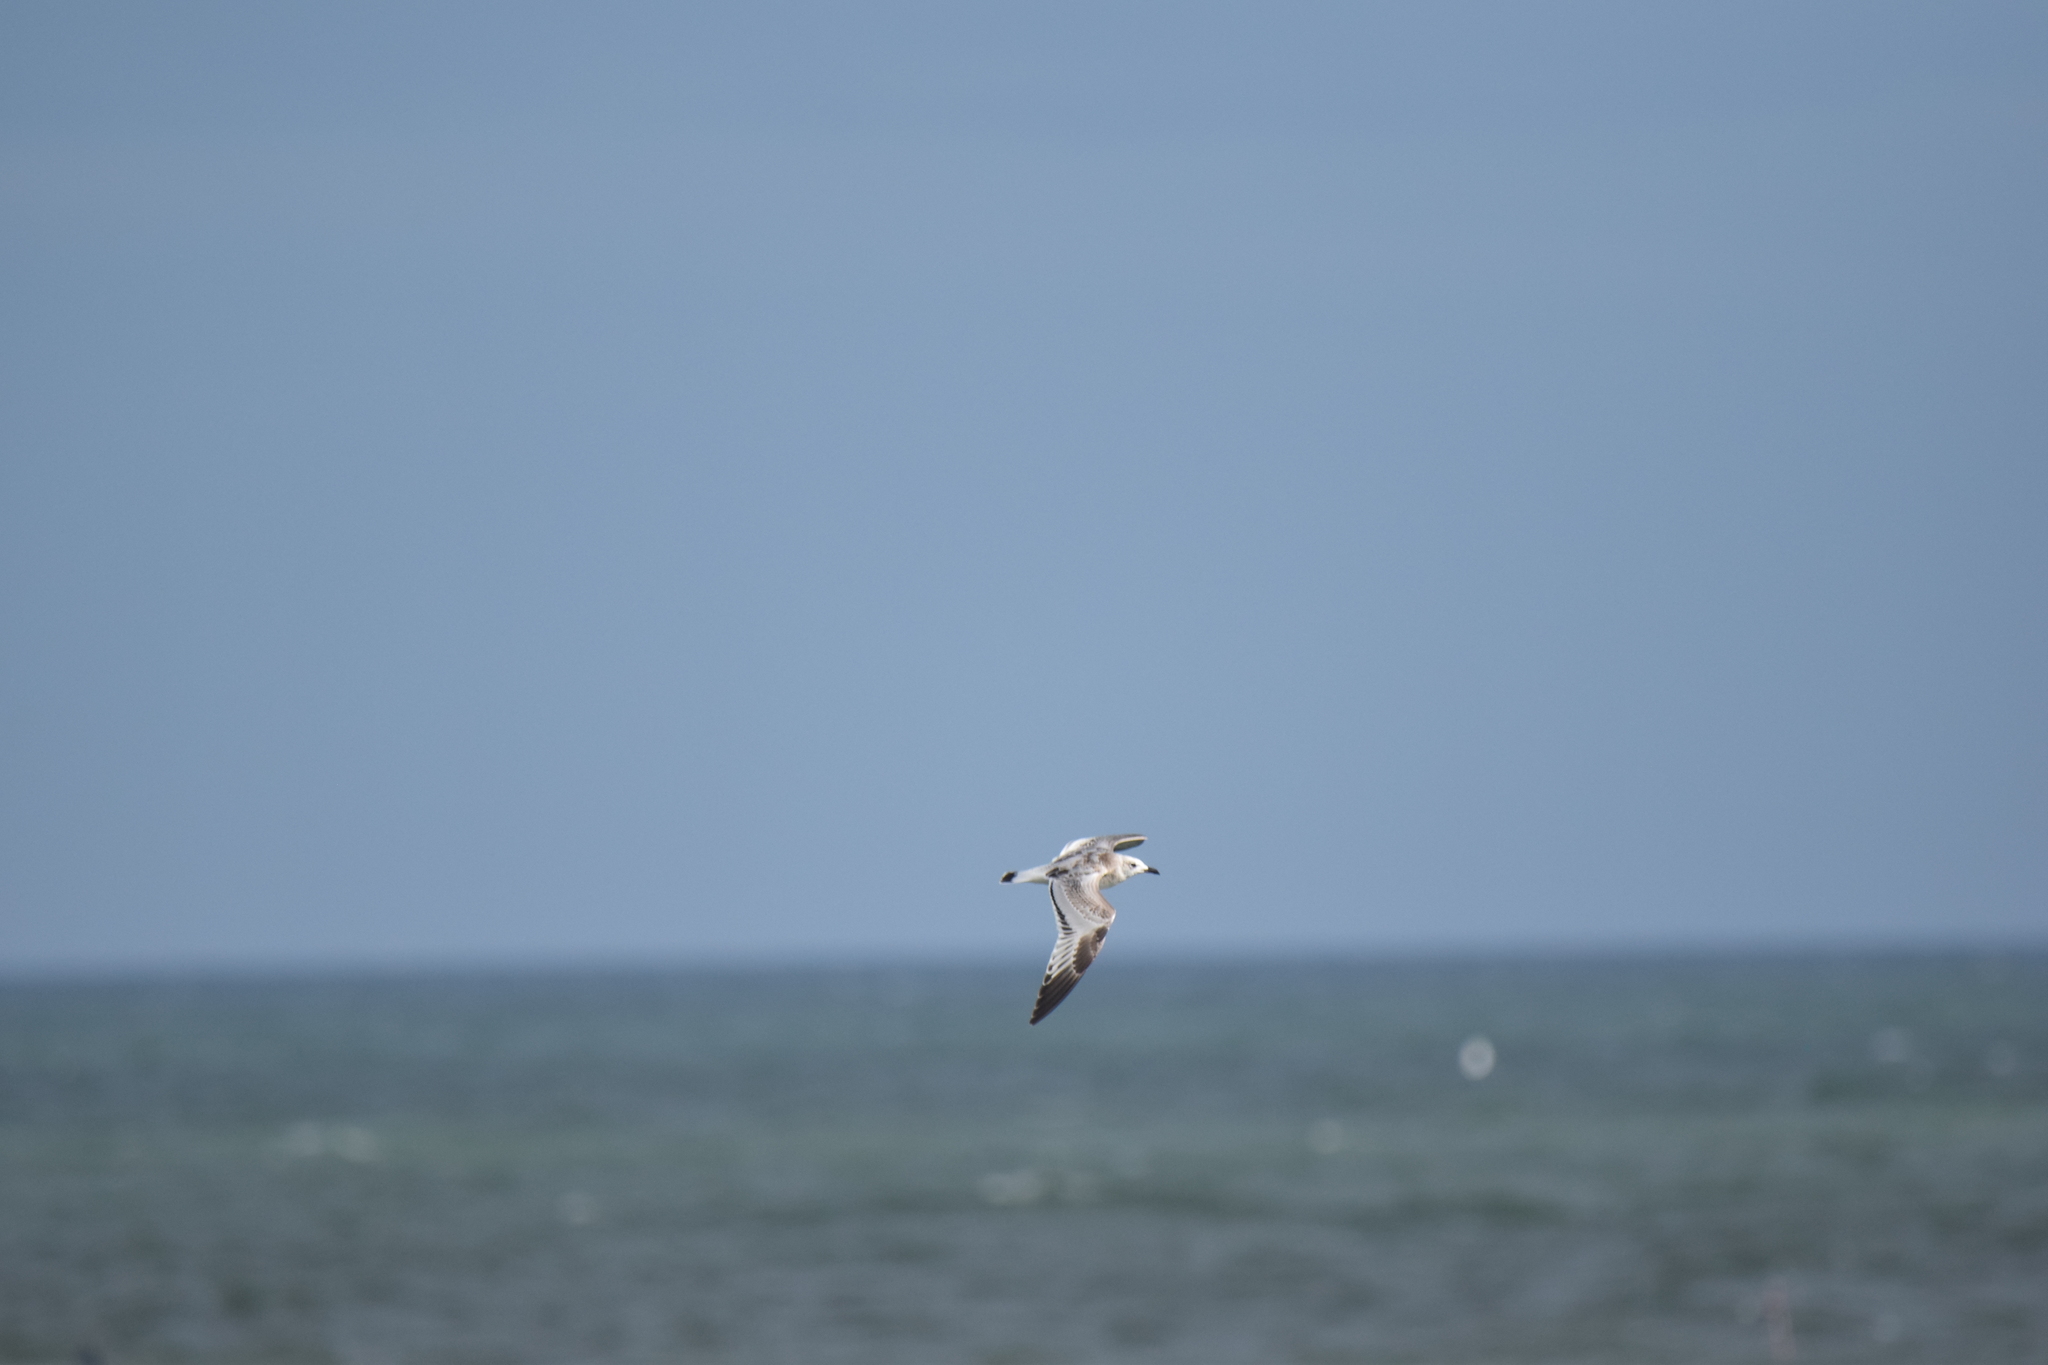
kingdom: Animalia
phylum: Chordata
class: Aves
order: Charadriiformes
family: Laridae
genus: Ichthyaetus
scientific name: Ichthyaetus melanocephalus
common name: Mediterranean gull
